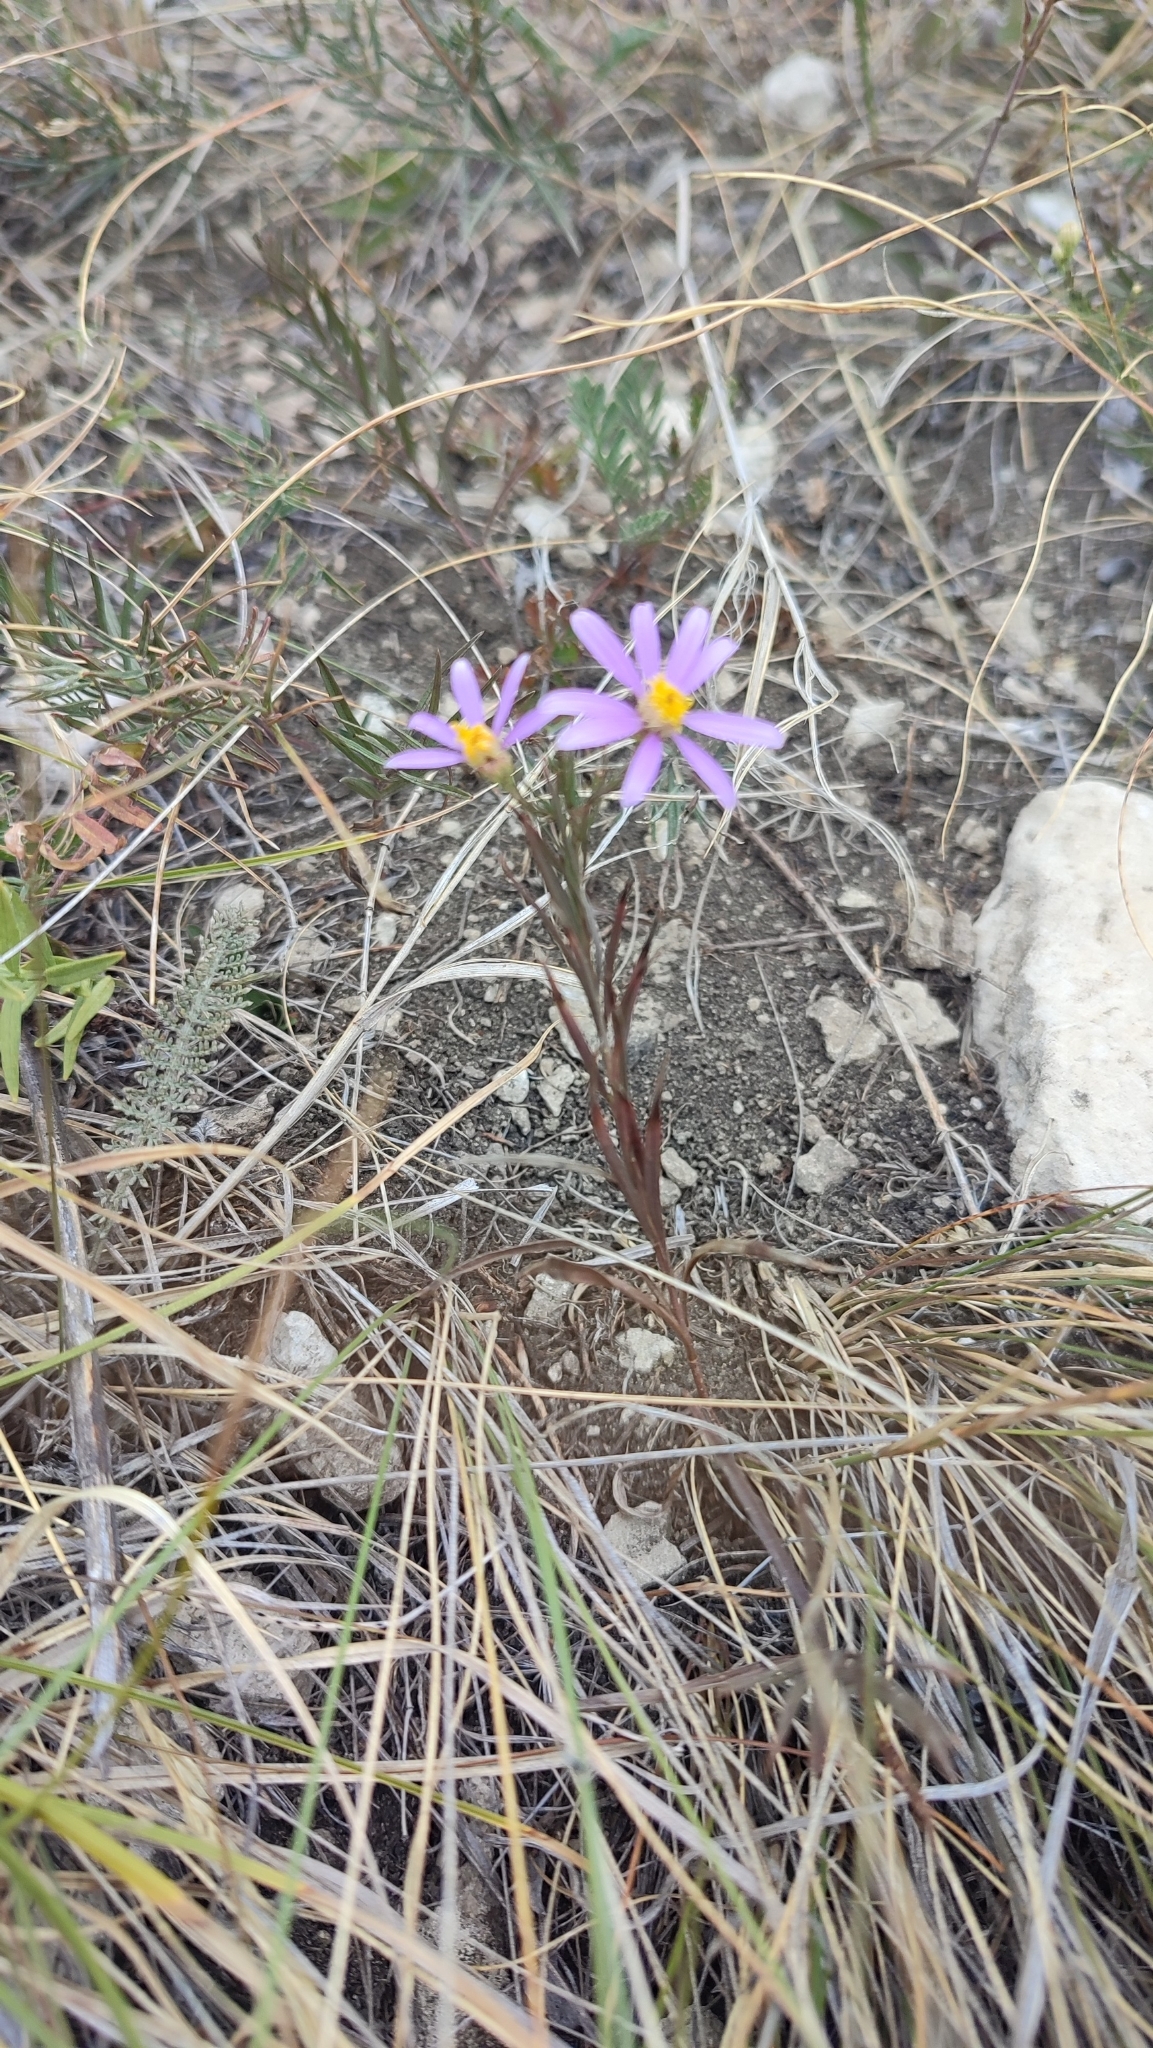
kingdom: Plantae
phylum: Tracheophyta
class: Magnoliopsida
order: Asterales
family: Asteraceae
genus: Galatella
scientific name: Galatella angustissima
